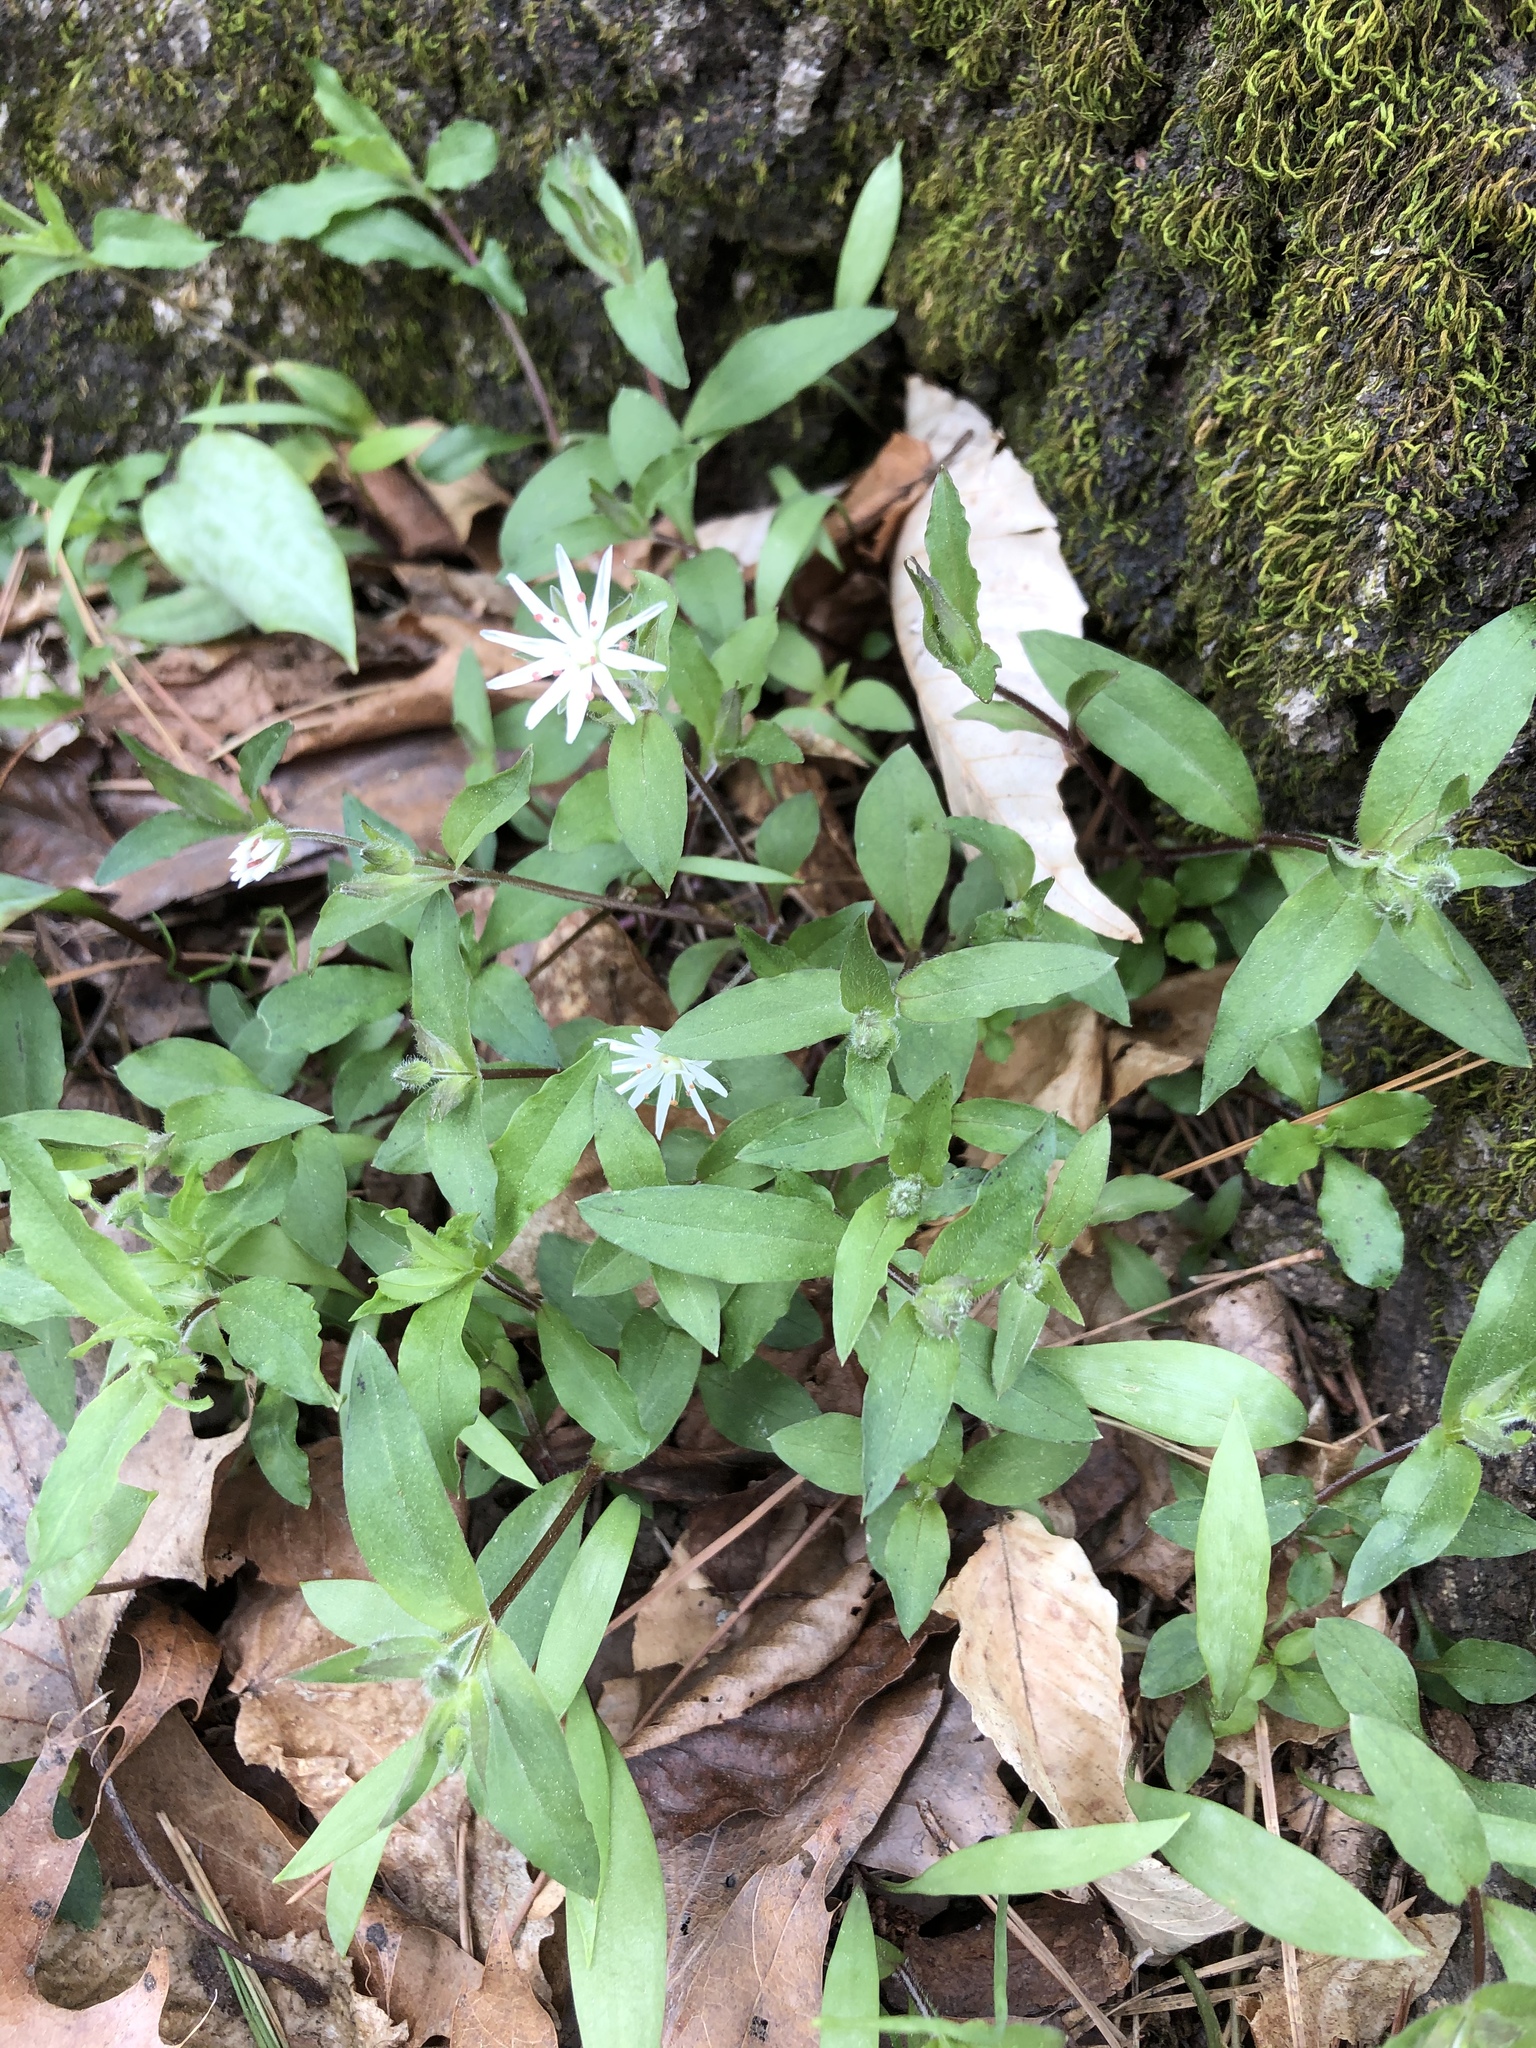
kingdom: Plantae
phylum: Tracheophyta
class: Magnoliopsida
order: Caryophyllales
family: Caryophyllaceae
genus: Stellaria
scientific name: Stellaria pubera
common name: Star chickweed
